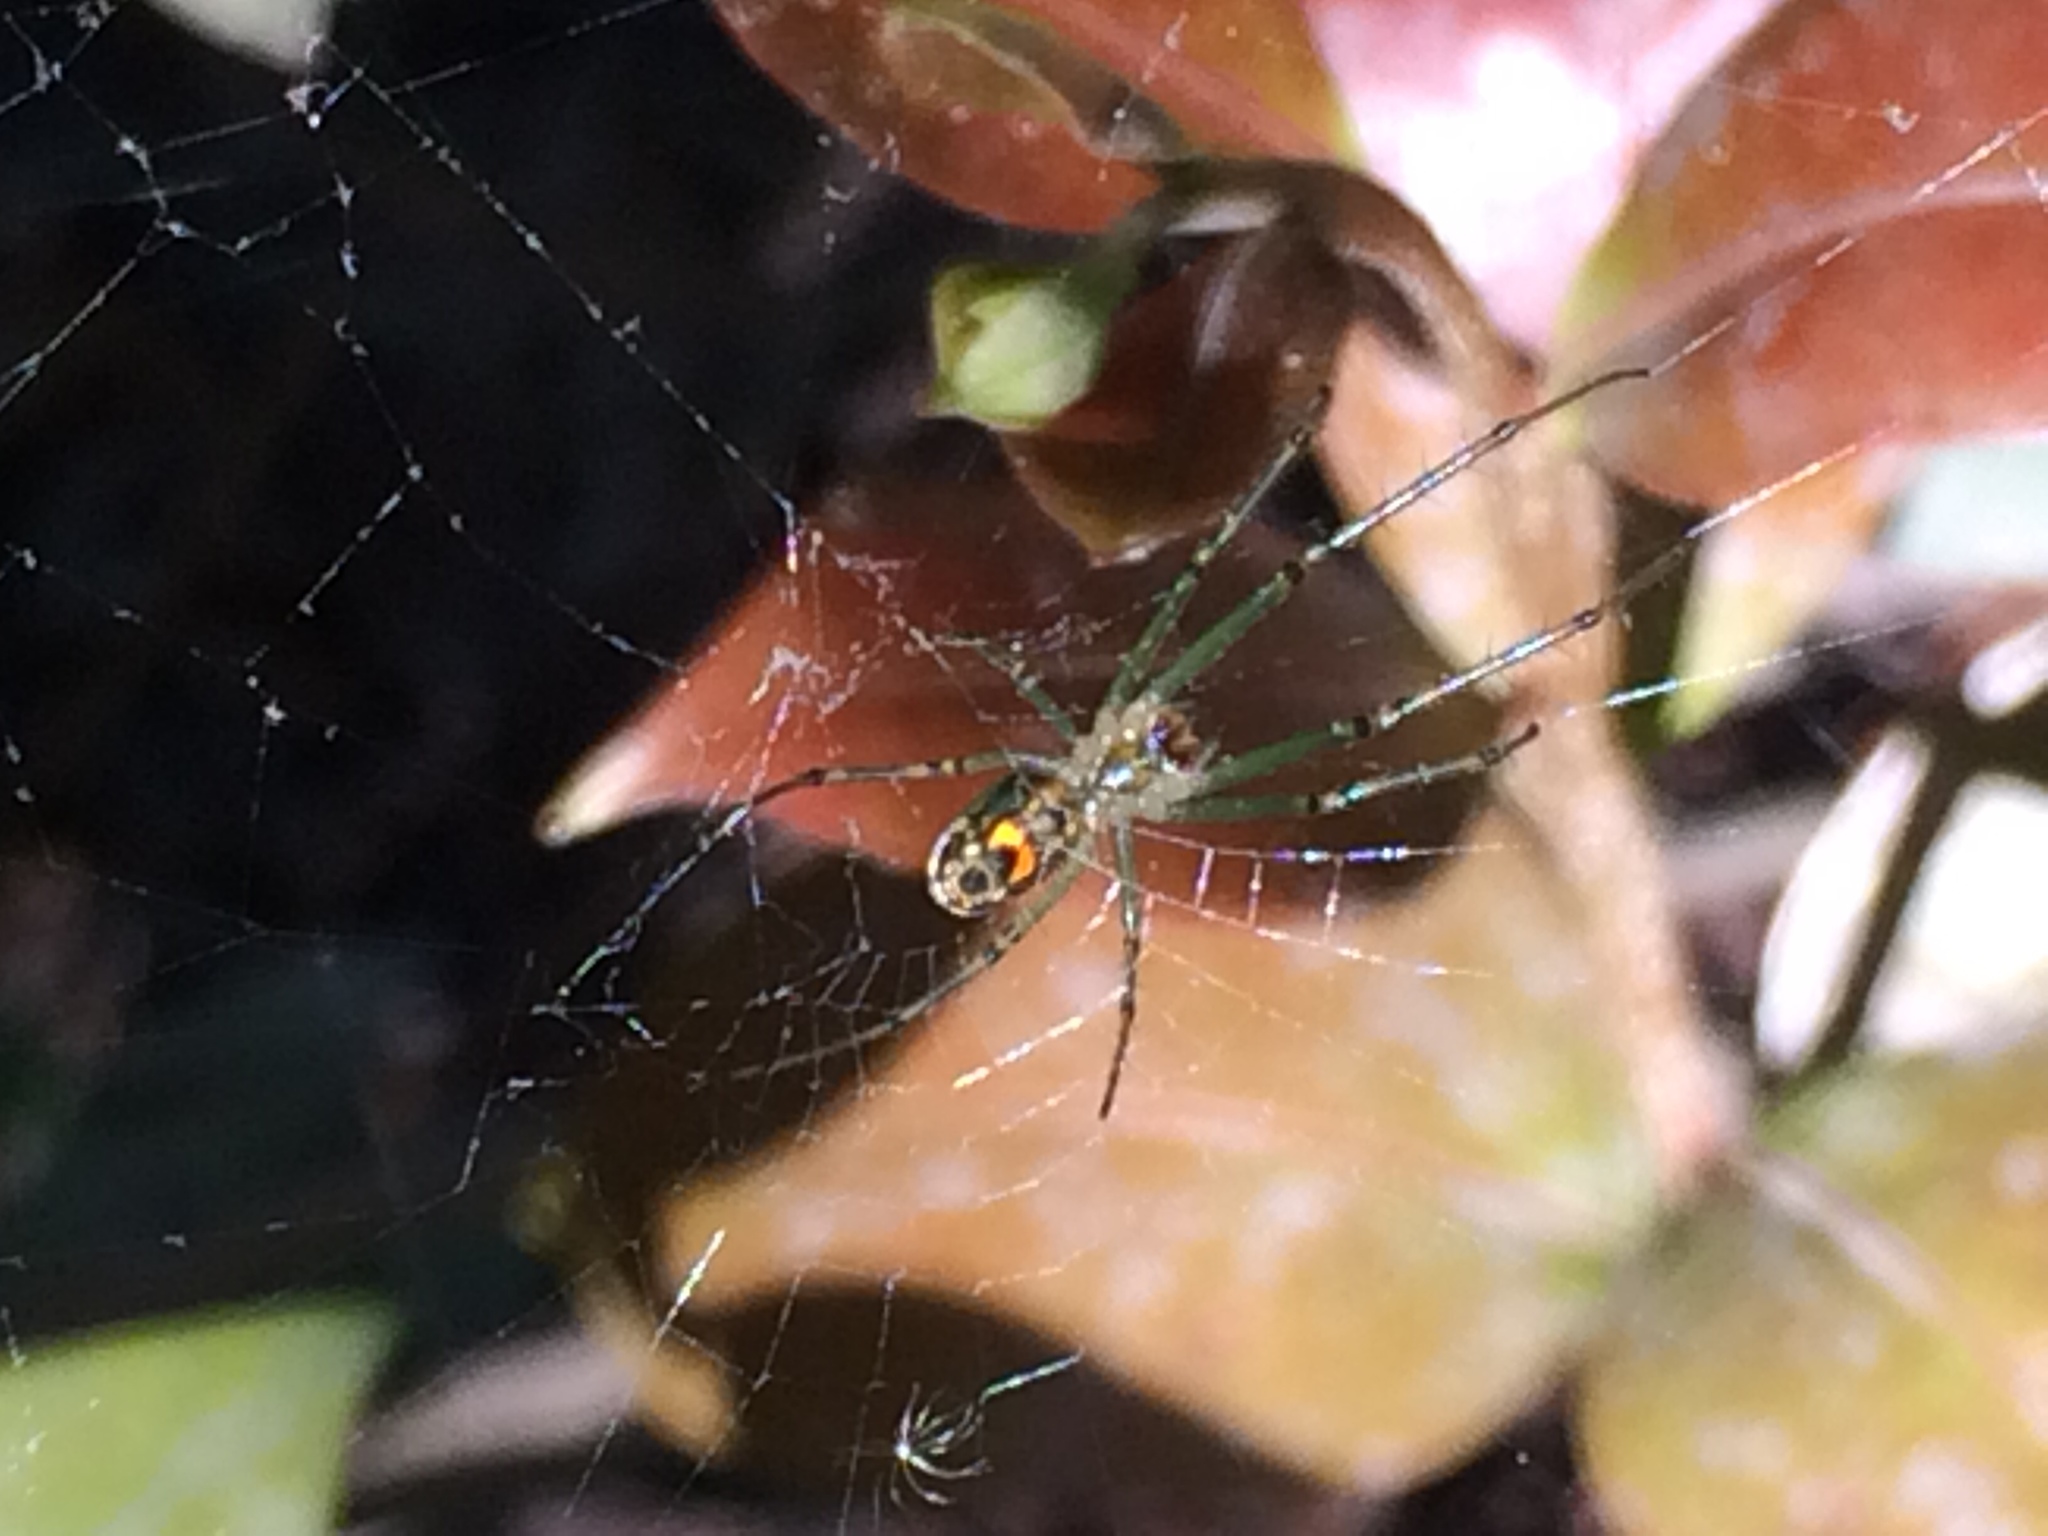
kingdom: Animalia
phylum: Arthropoda
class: Arachnida
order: Araneae
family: Tetragnathidae
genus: Leucauge
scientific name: Leucauge
